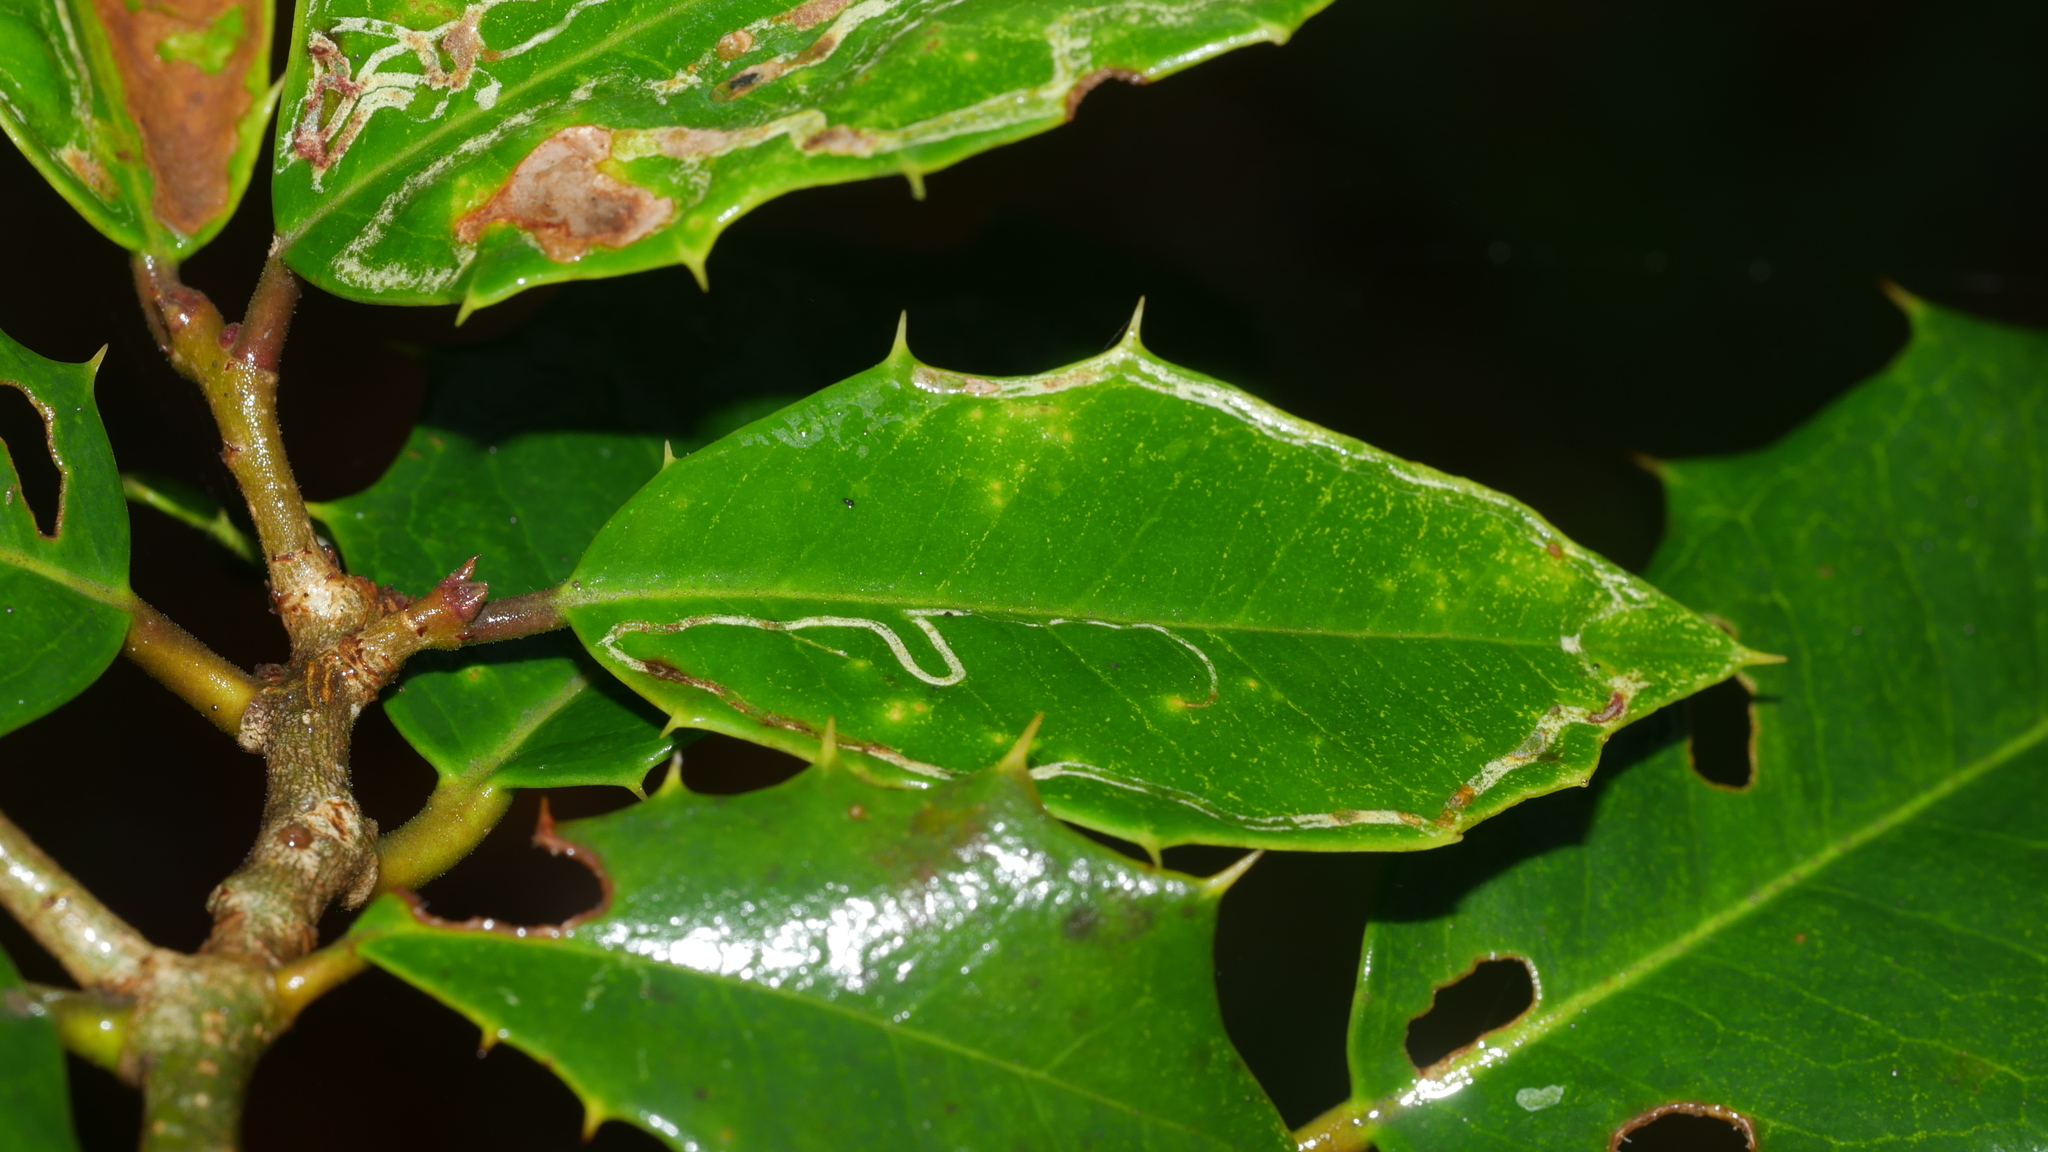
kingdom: Animalia
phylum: Arthropoda
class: Insecta
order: Diptera
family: Agromyzidae
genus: Phytomyza
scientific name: Phytomyza opacae
